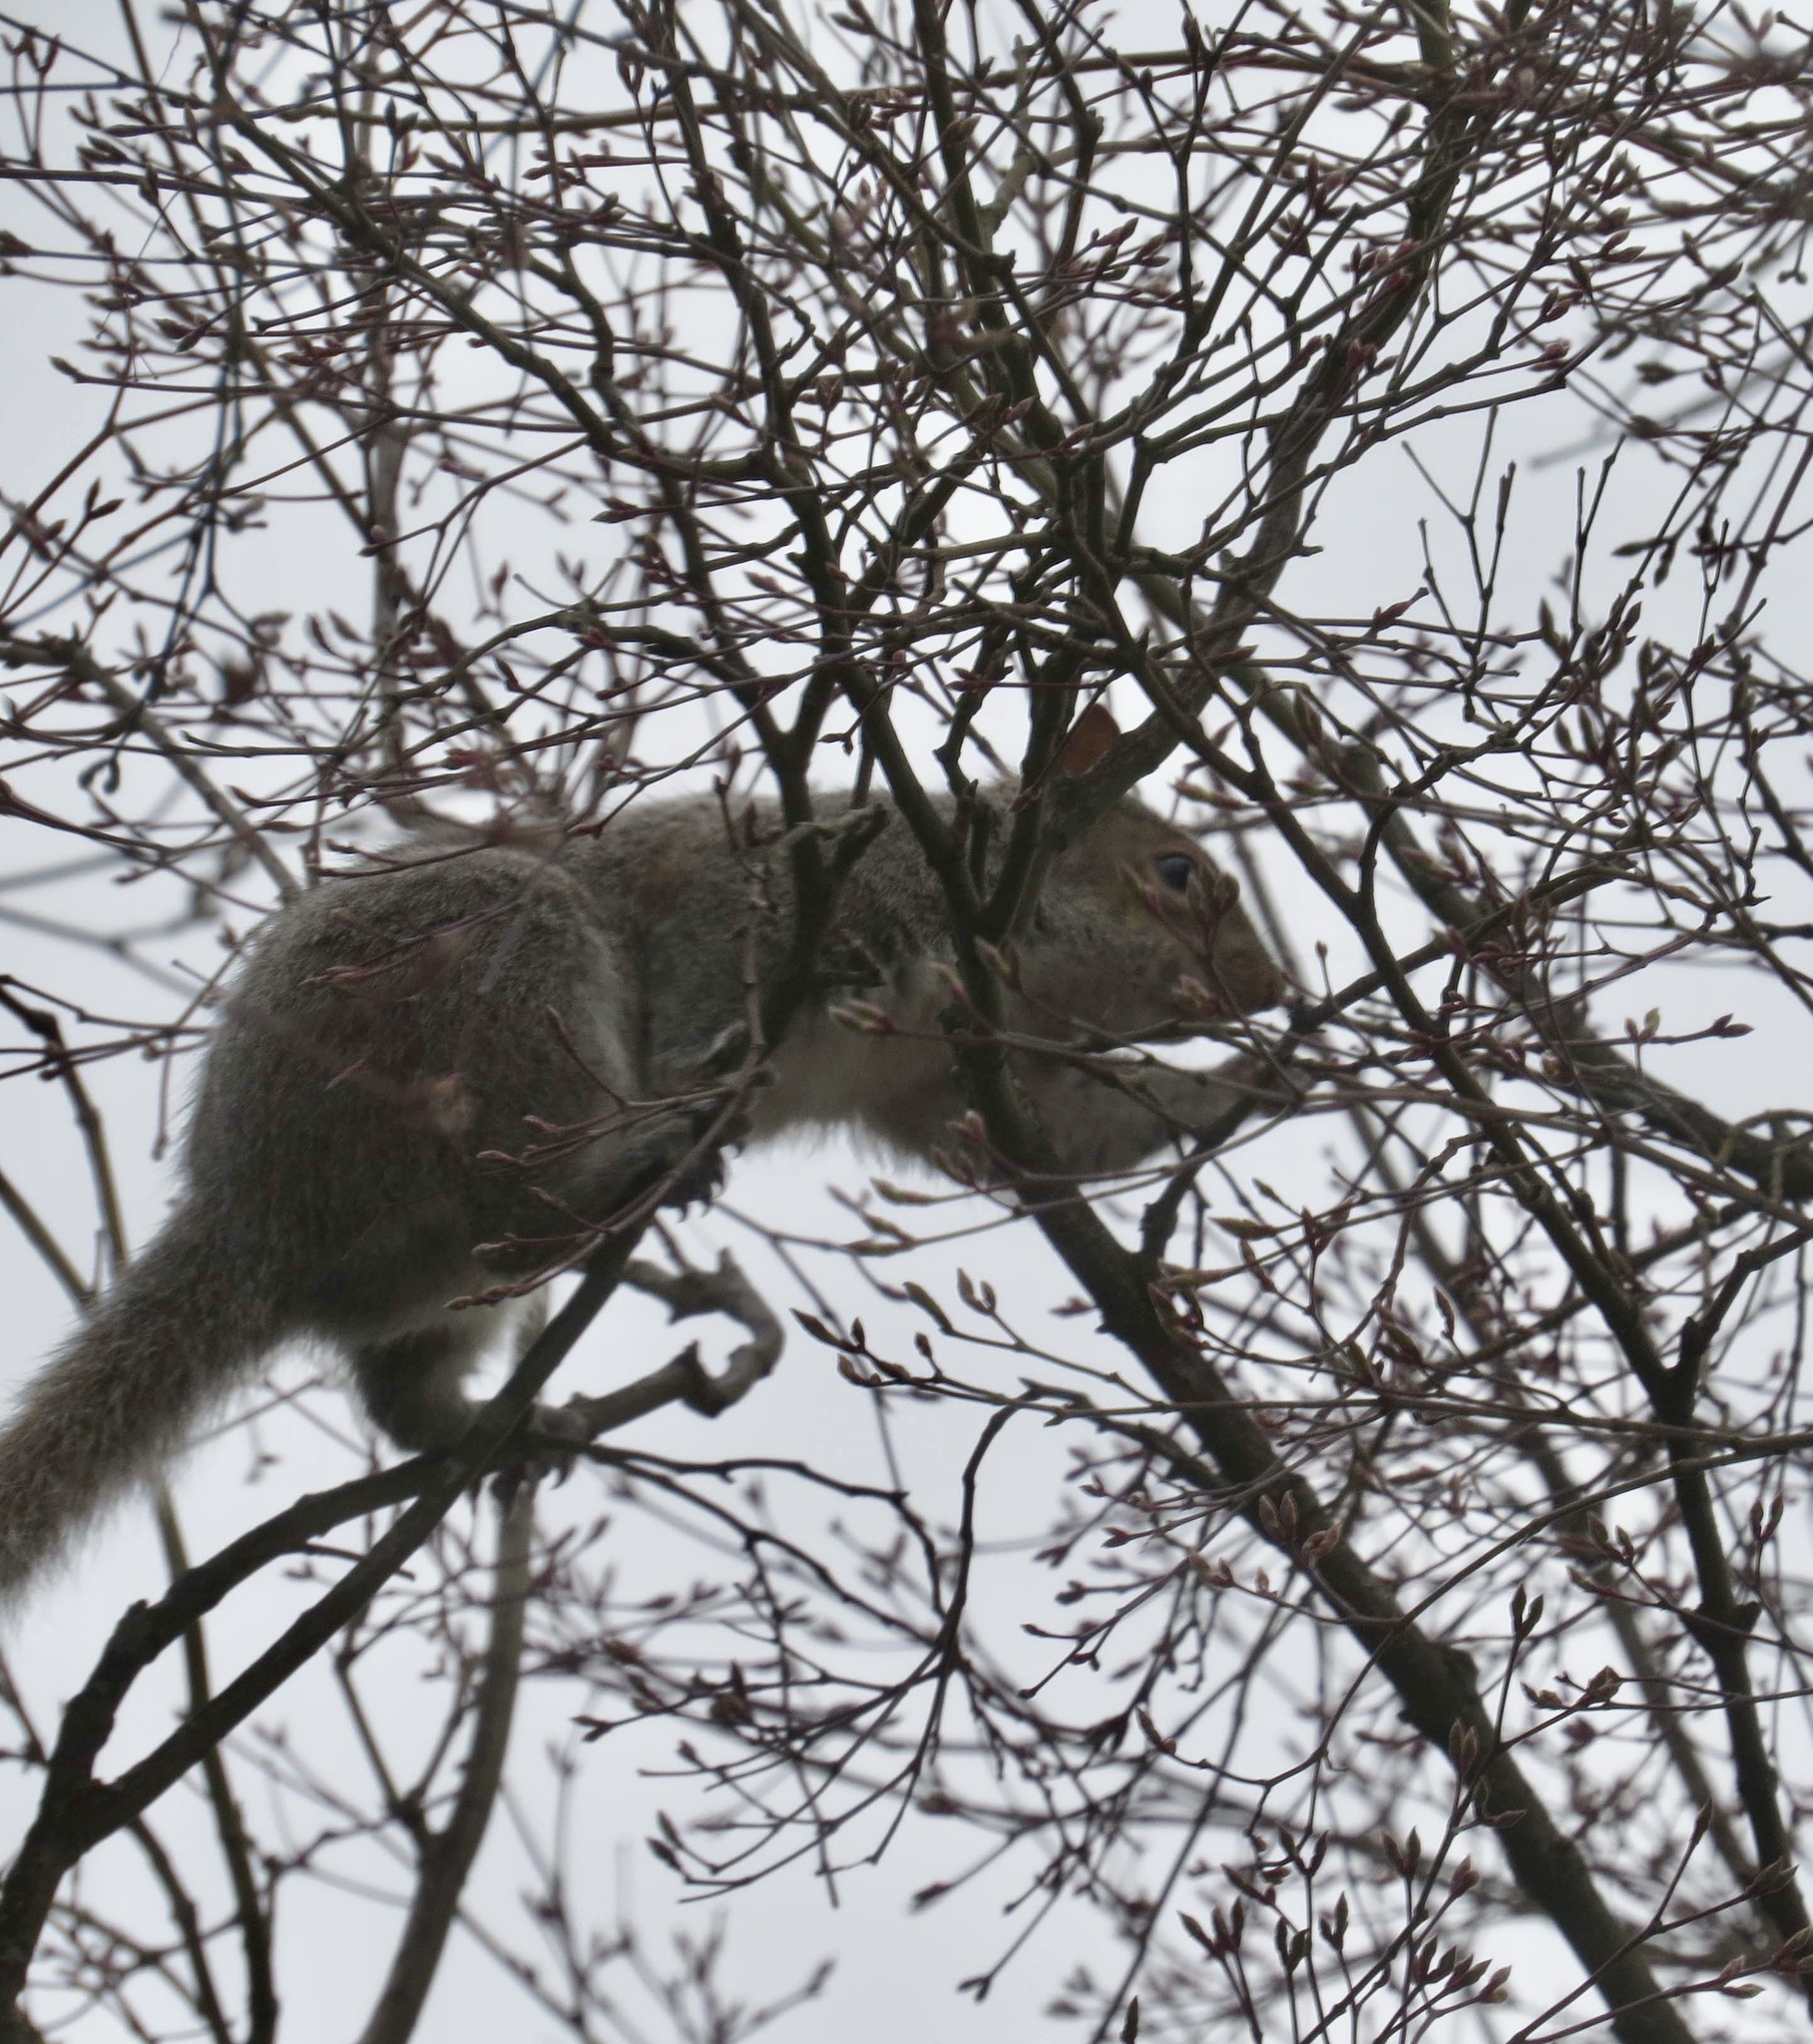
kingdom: Animalia
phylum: Chordata
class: Mammalia
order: Rodentia
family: Sciuridae
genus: Sciurus
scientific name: Sciurus carolinensis
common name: Eastern gray squirrel
